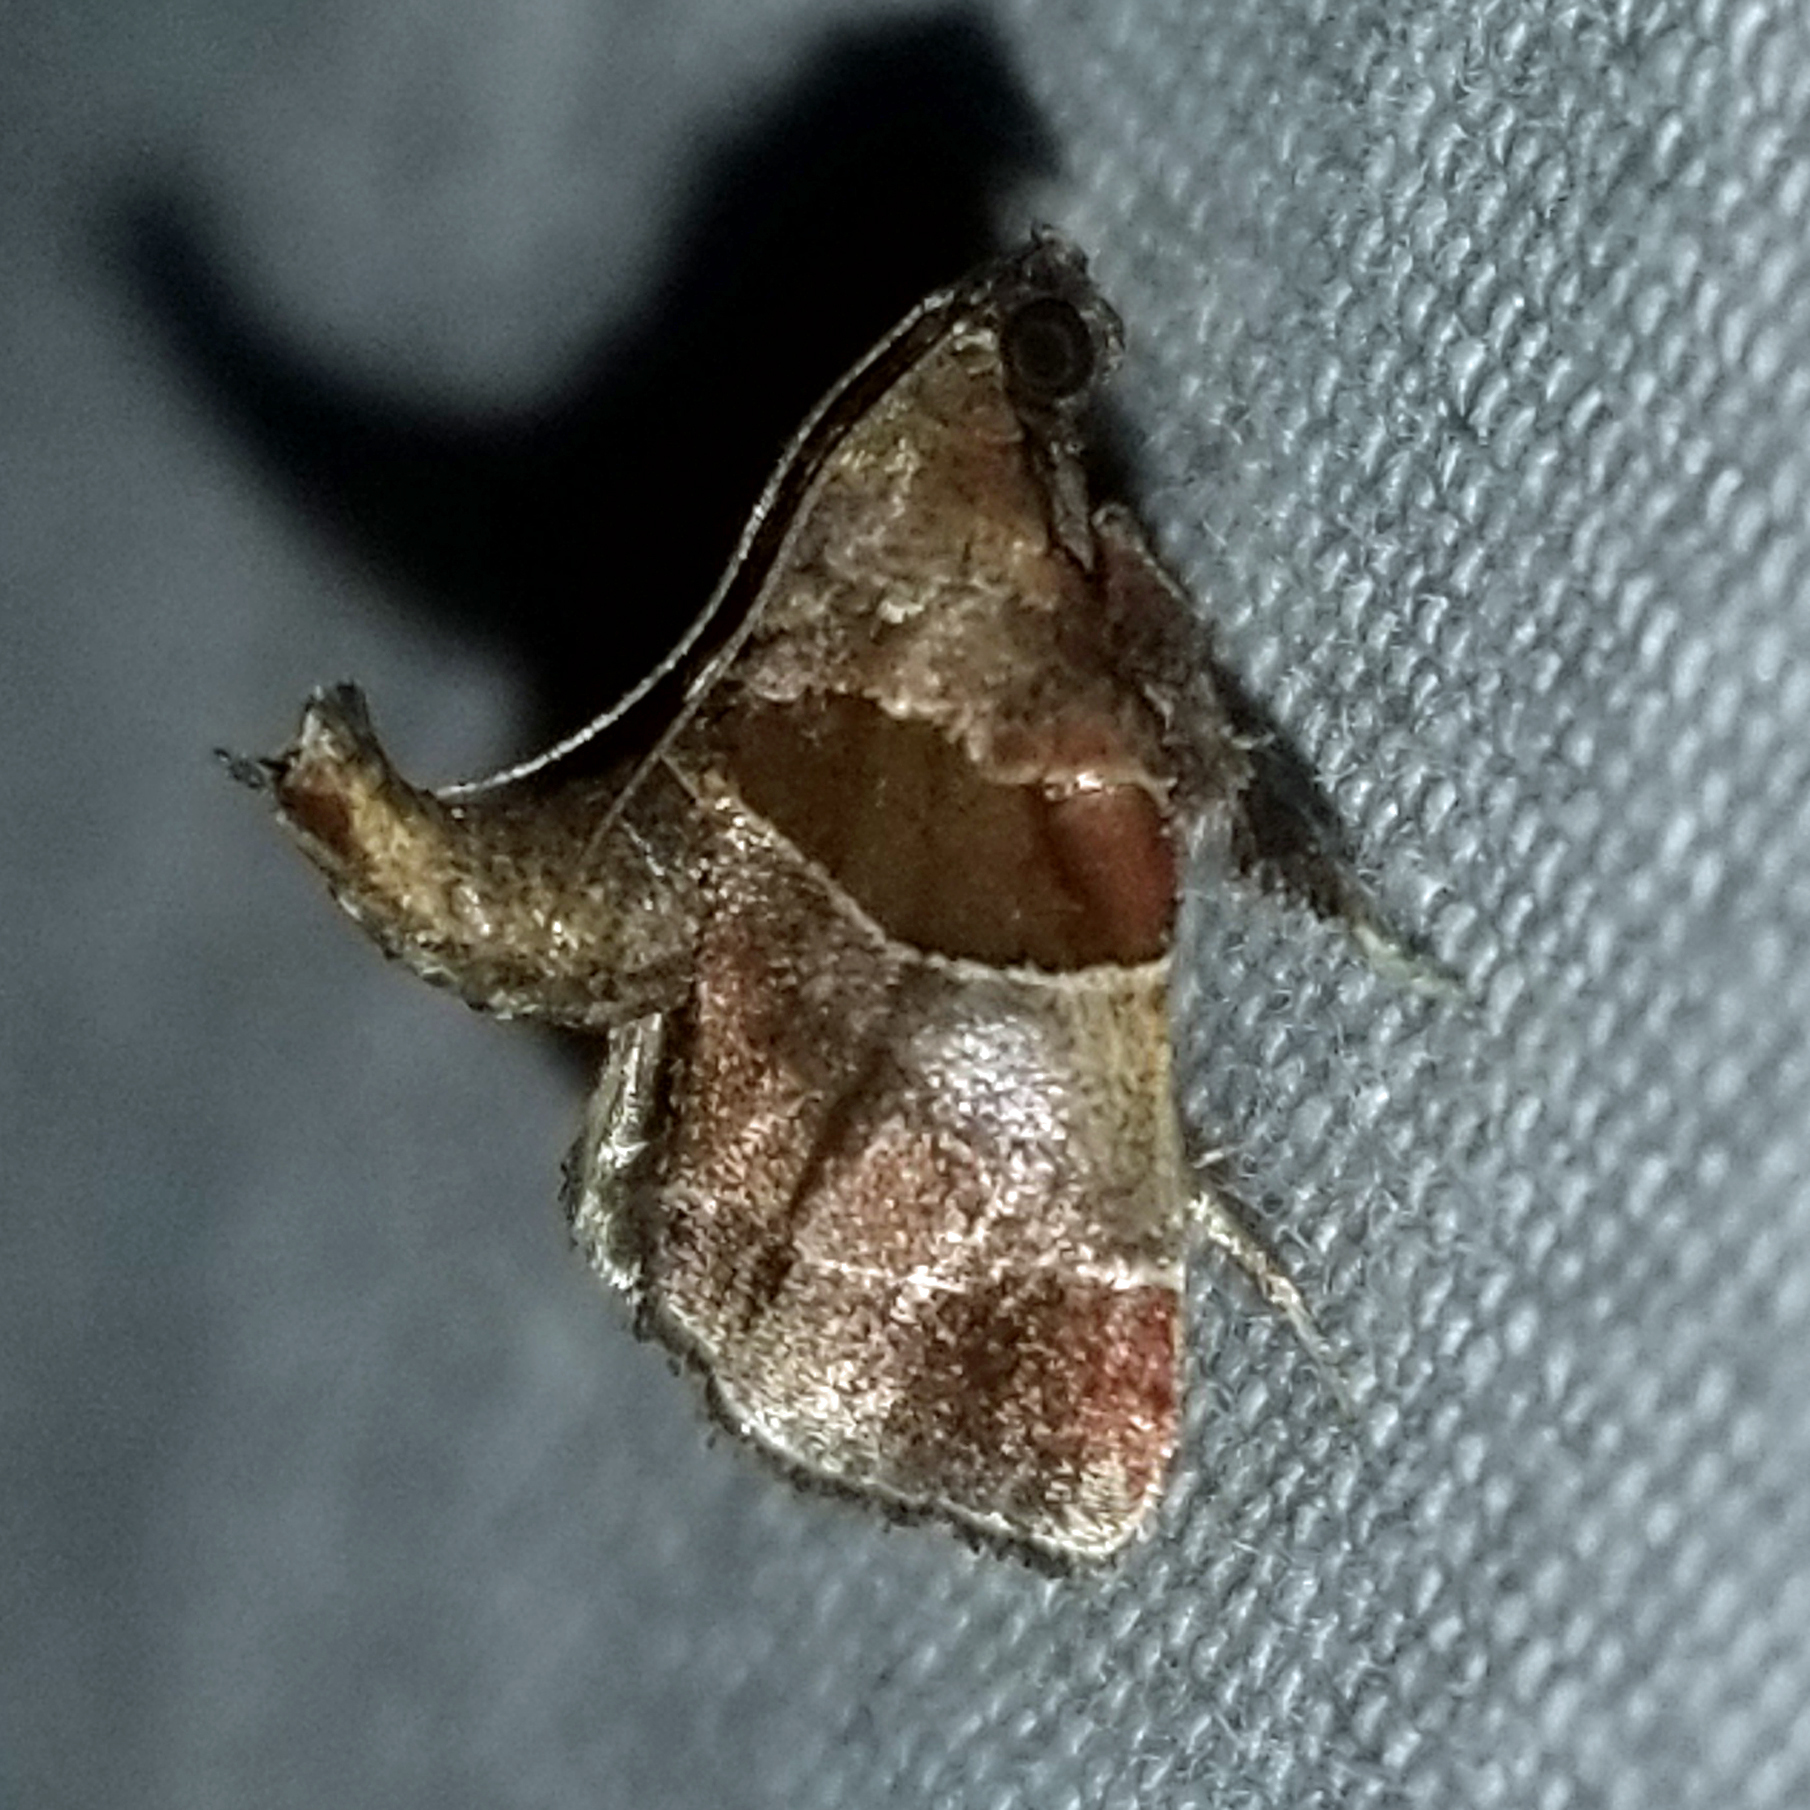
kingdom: Animalia
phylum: Arthropoda
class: Insecta
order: Lepidoptera
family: Pyralidae
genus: Tosale
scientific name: Tosale oviplagalis
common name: Dimorphic tosale moth
